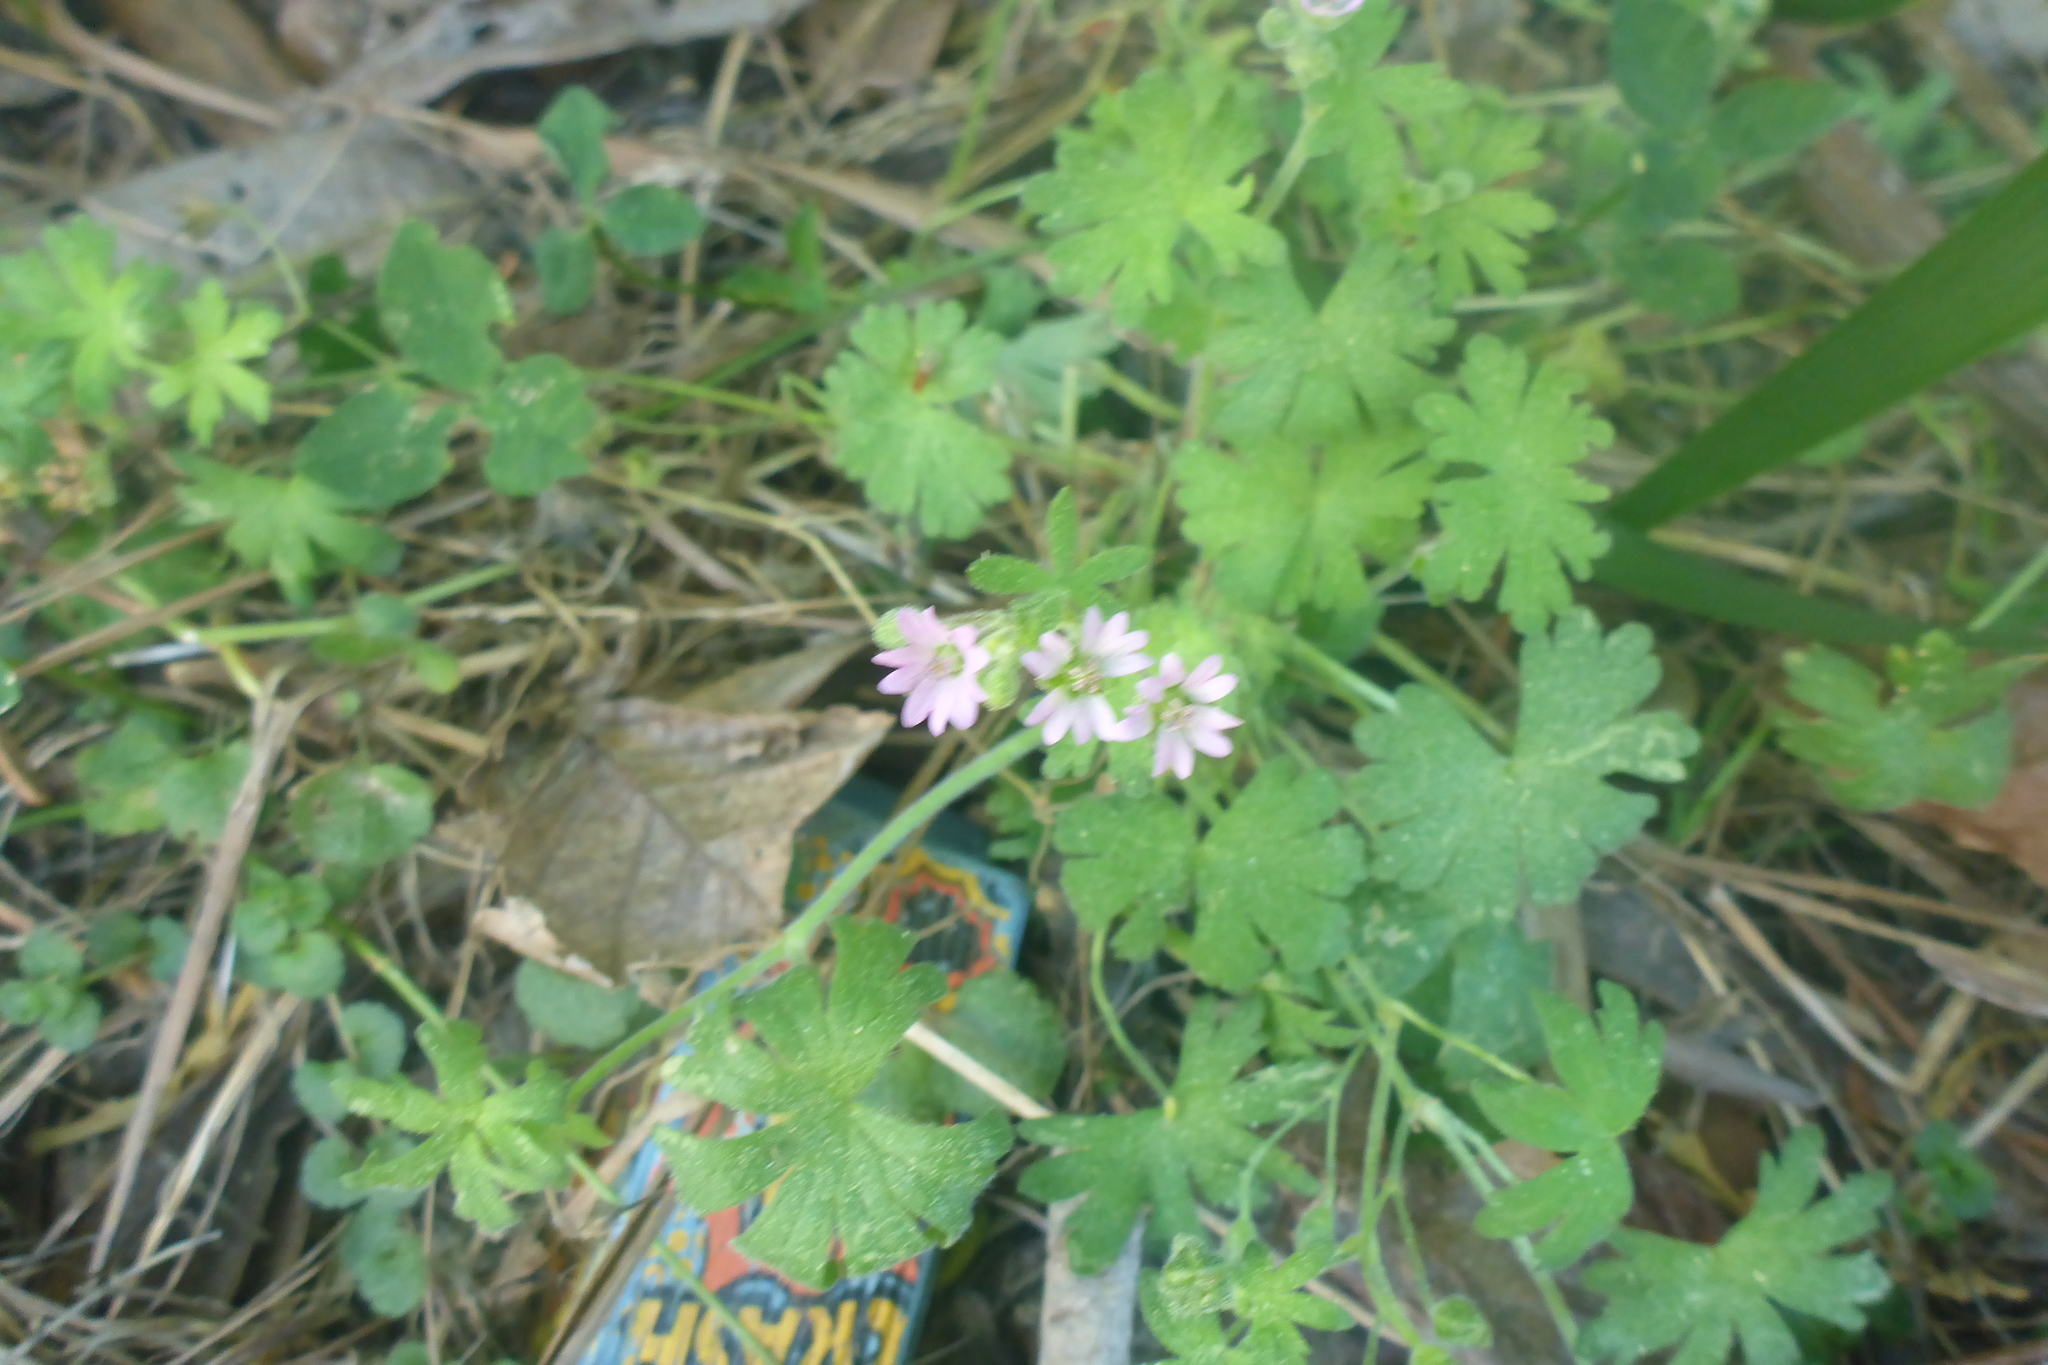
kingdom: Plantae
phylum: Tracheophyta
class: Magnoliopsida
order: Geraniales
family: Geraniaceae
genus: Geranium
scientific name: Geranium molle
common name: Dove's-foot crane's-bill
